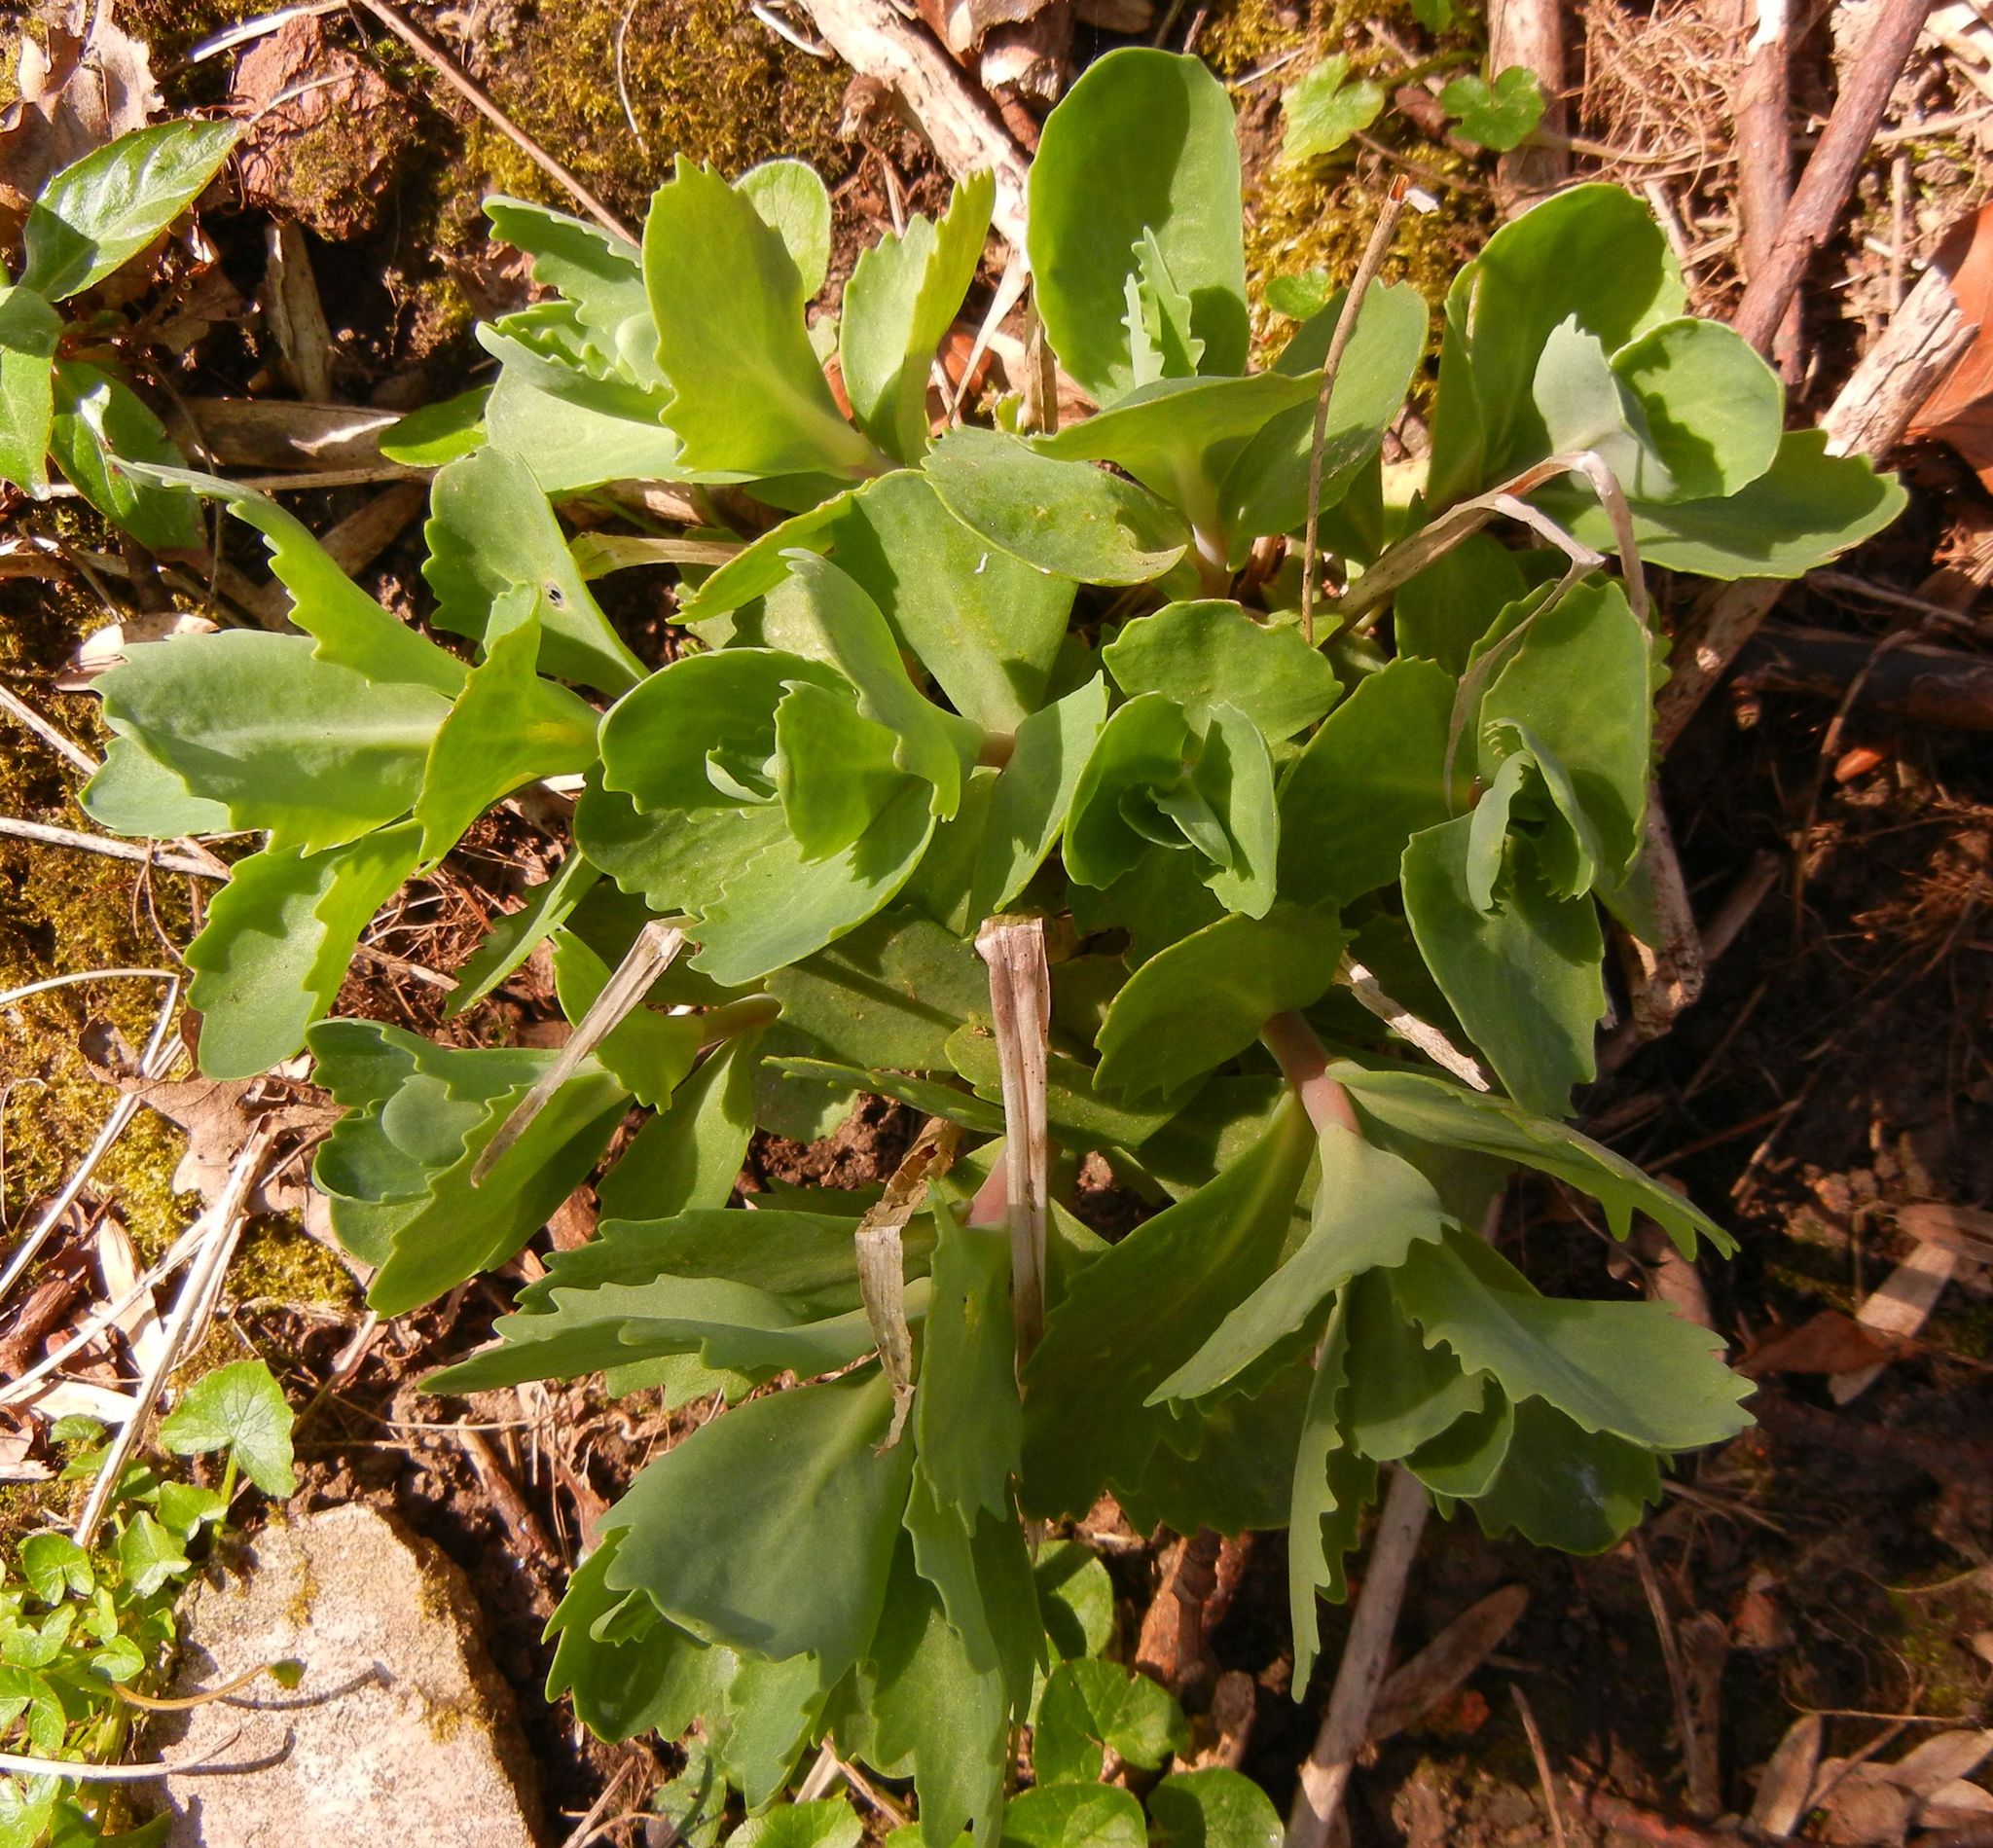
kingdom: Plantae
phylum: Tracheophyta
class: Magnoliopsida
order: Saxifragales
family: Crassulaceae
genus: Hylotelephium
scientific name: Hylotelephium maximum
